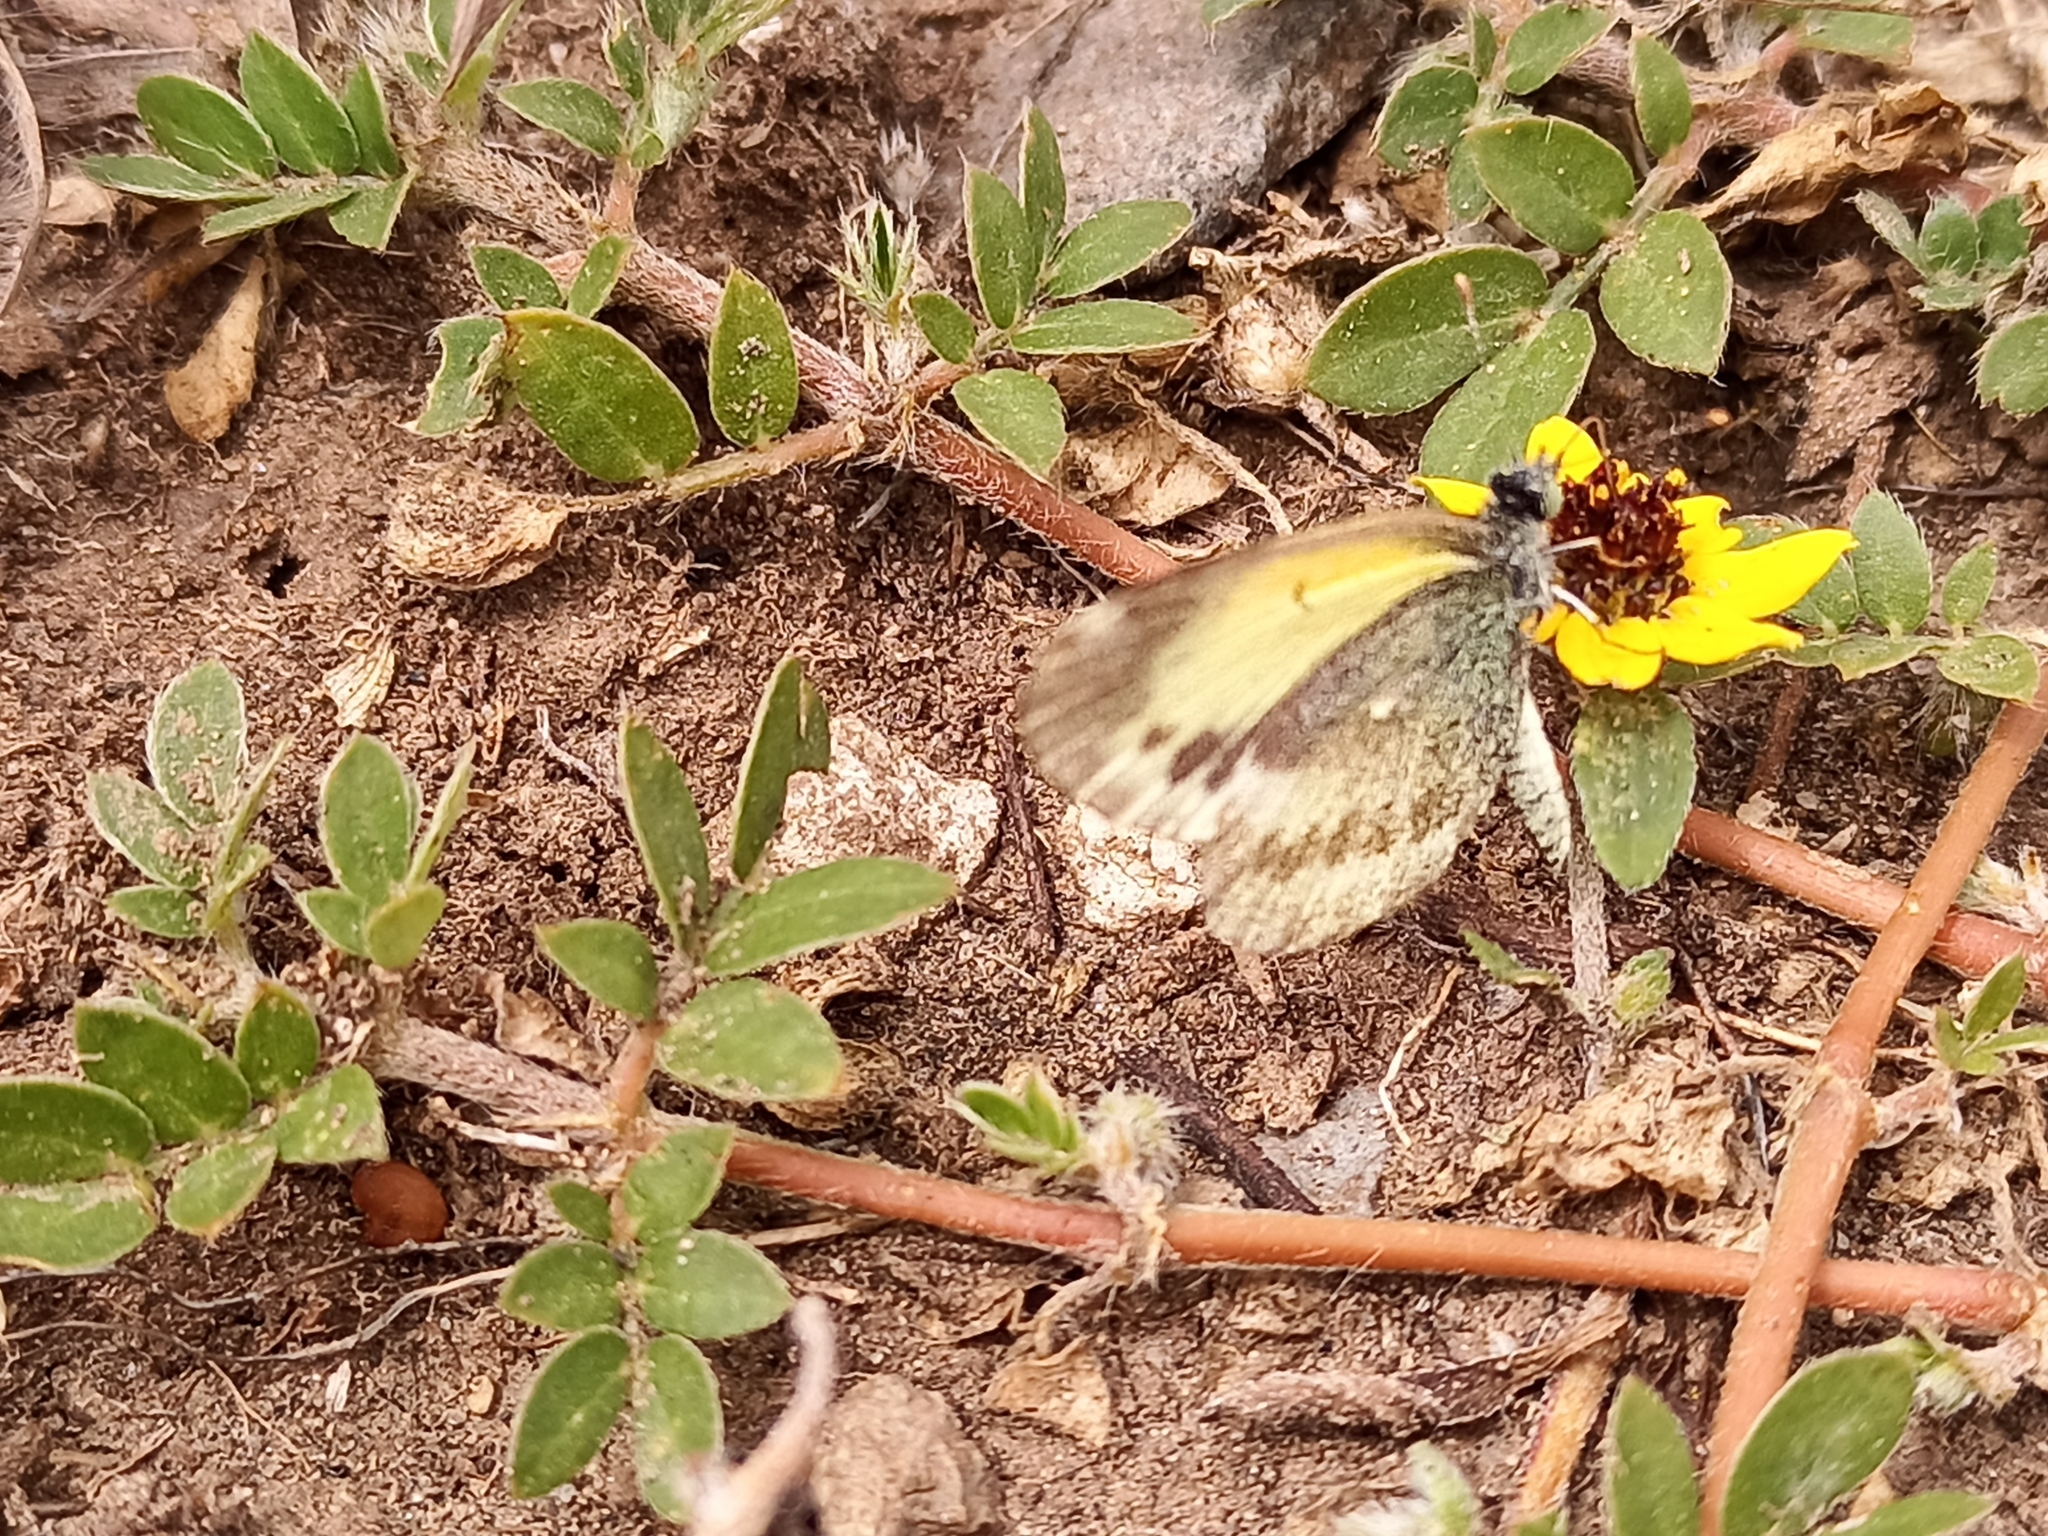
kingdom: Animalia
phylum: Arthropoda
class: Insecta
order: Lepidoptera
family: Pieridae
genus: Nathalis
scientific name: Nathalis iole
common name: Dainty sulphur
